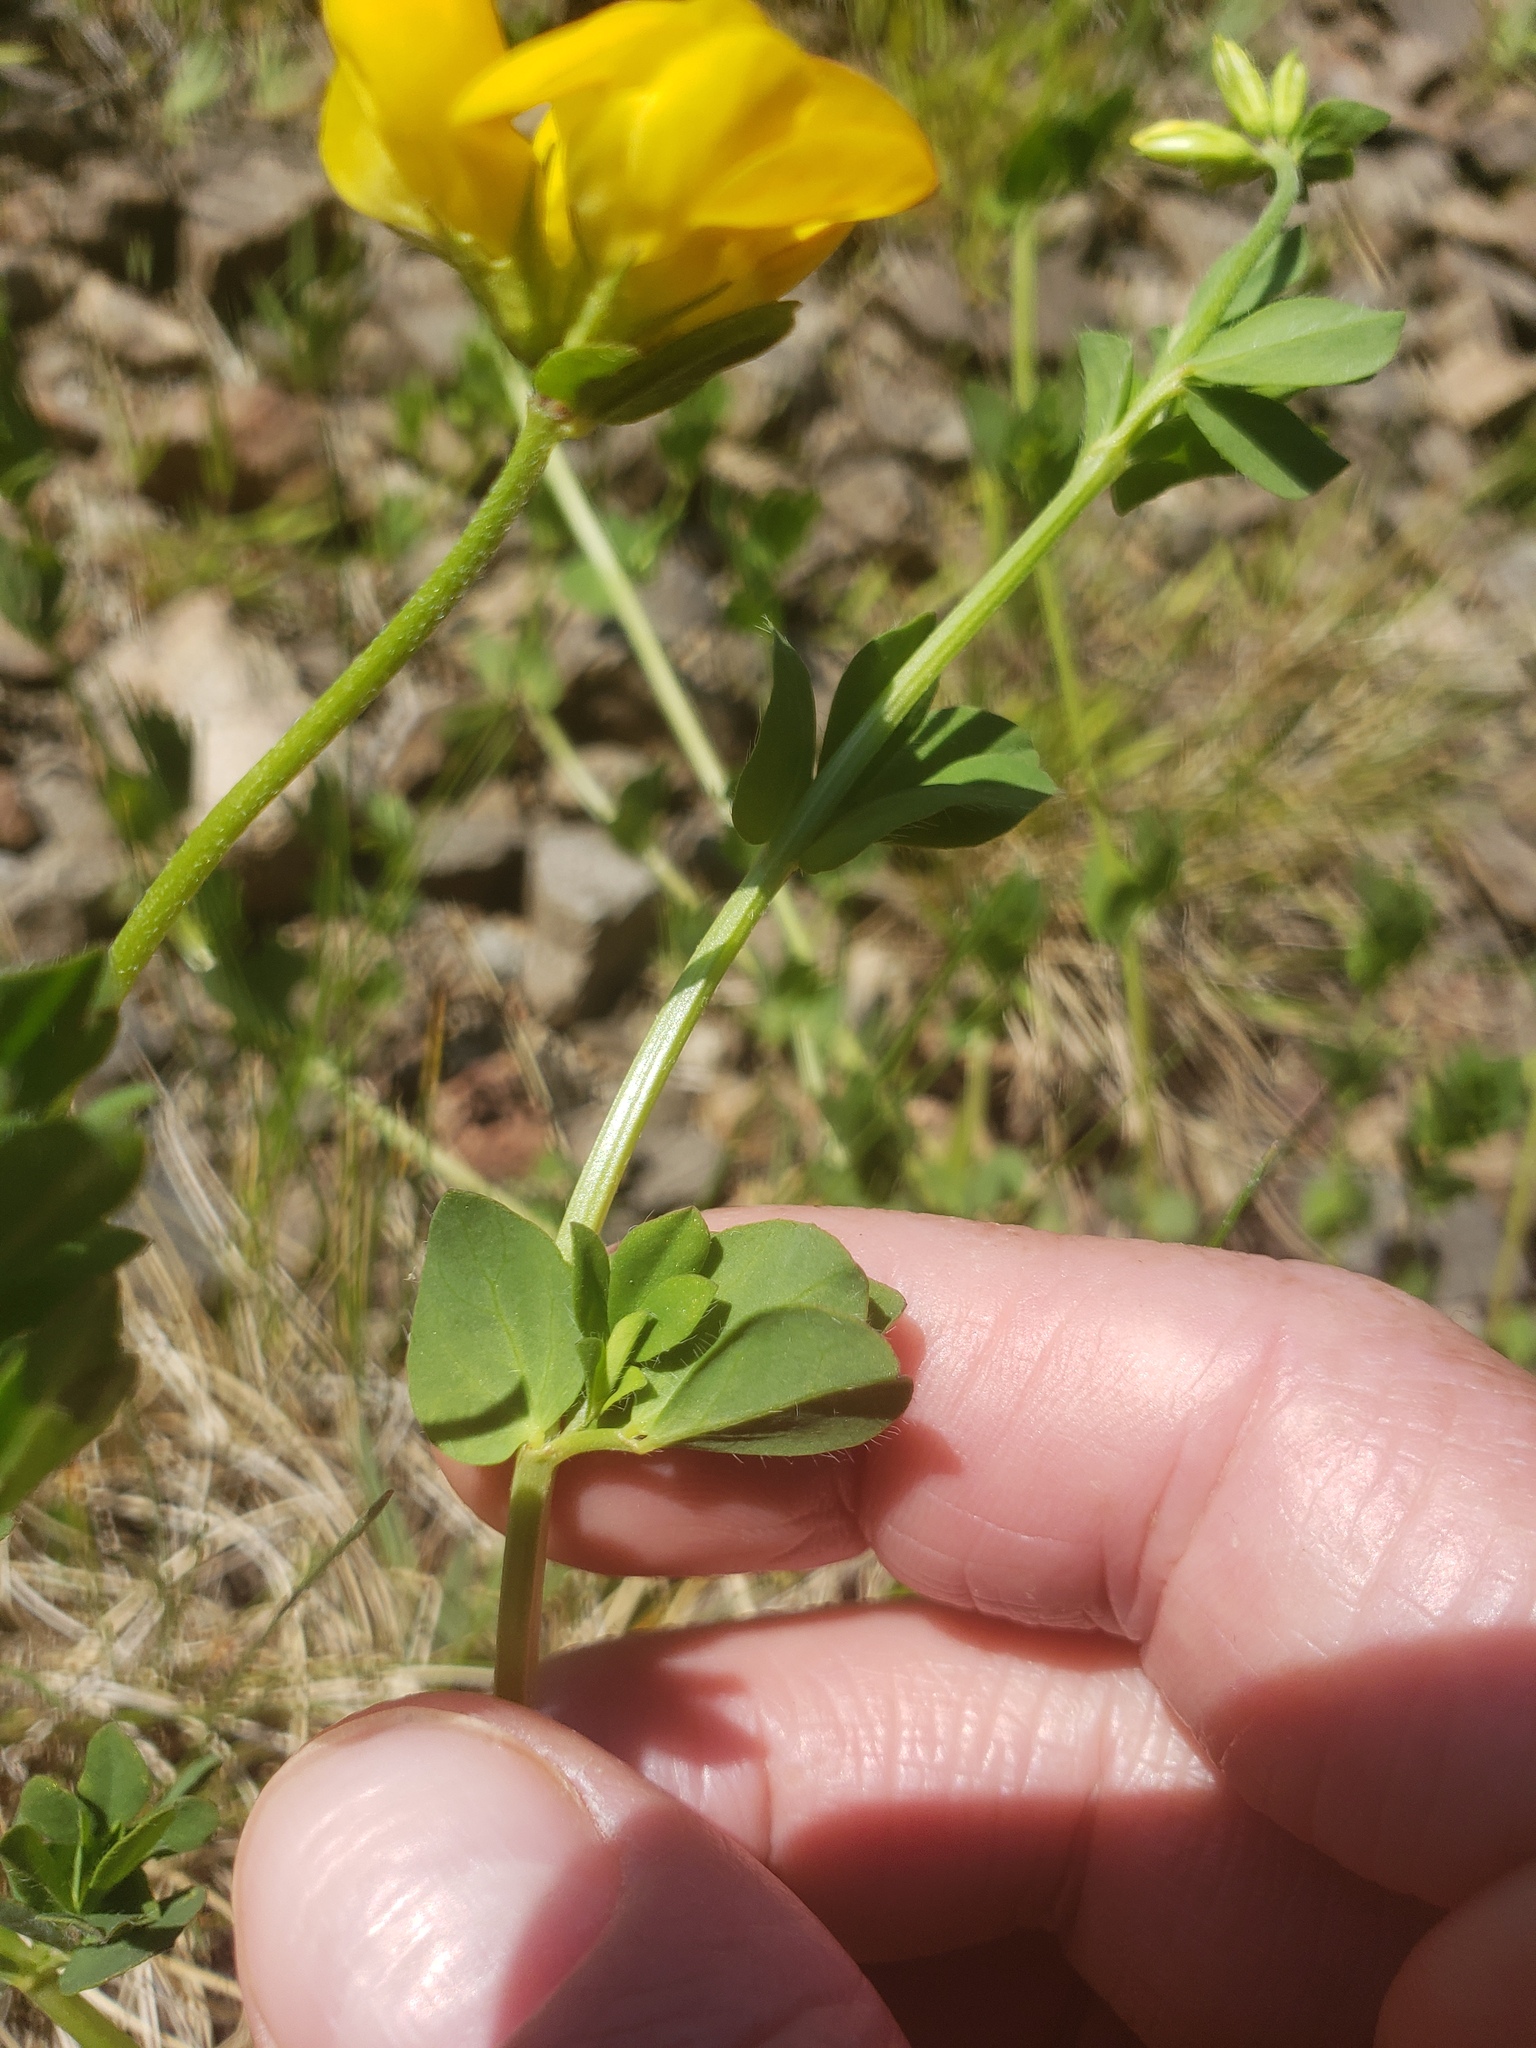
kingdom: Plantae
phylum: Tracheophyta
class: Magnoliopsida
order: Fabales
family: Fabaceae
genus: Lotus
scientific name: Lotus corniculatus
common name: Common bird's-foot-trefoil
